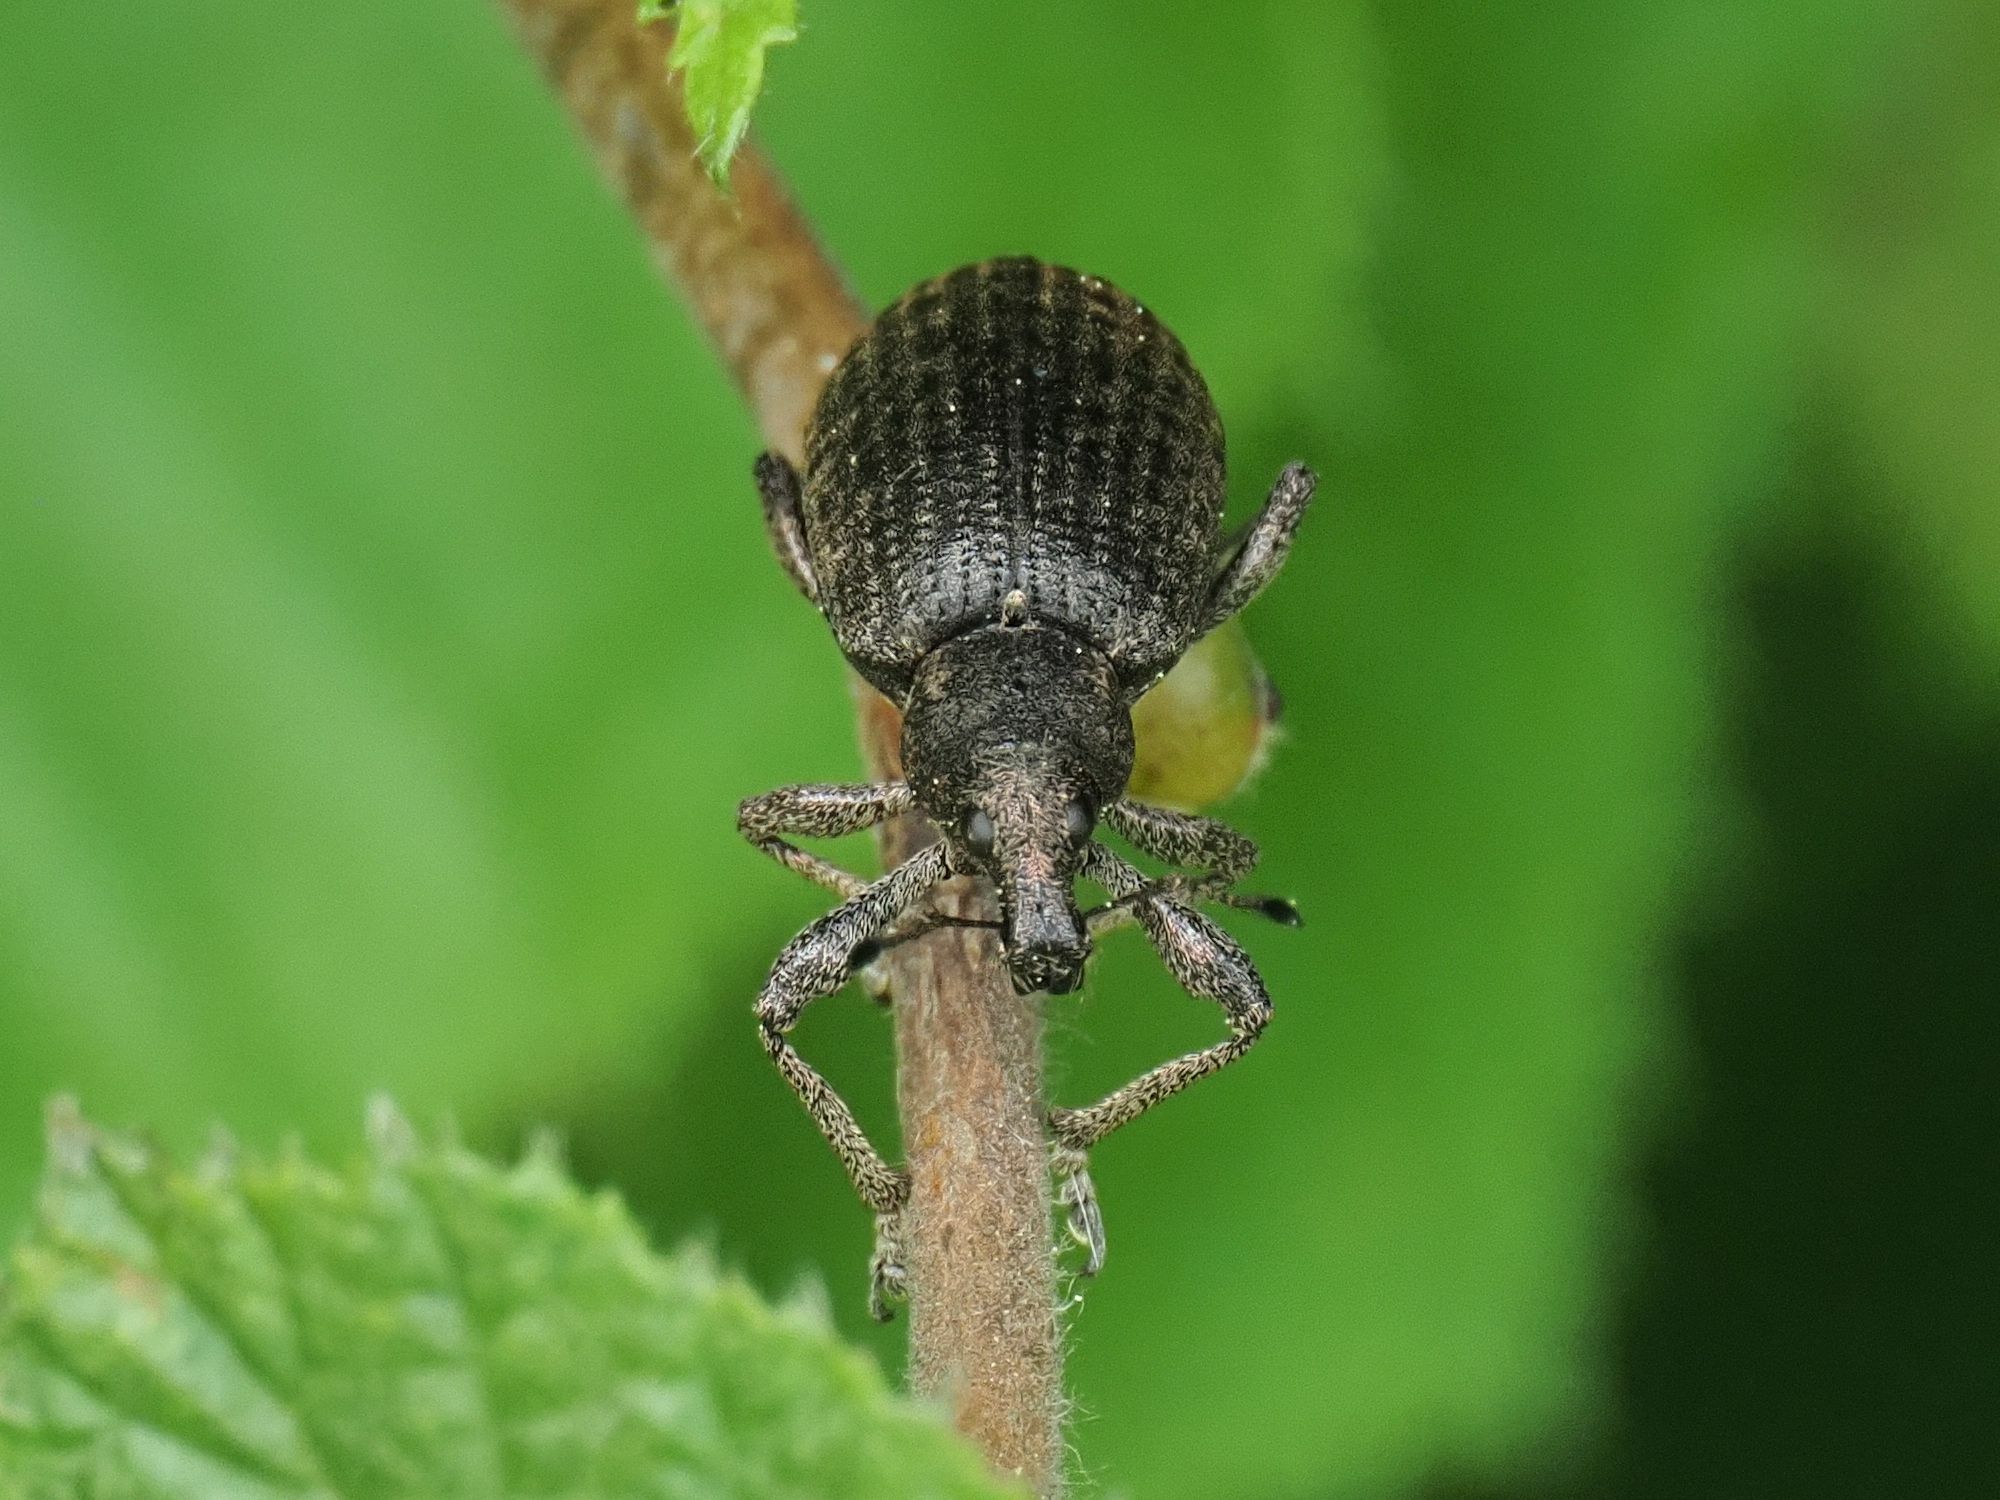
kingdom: Animalia
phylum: Arthropoda
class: Insecta
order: Coleoptera
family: Curculionidae
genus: Liophloeus
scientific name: Liophloeus tessulatus
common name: Weevil
